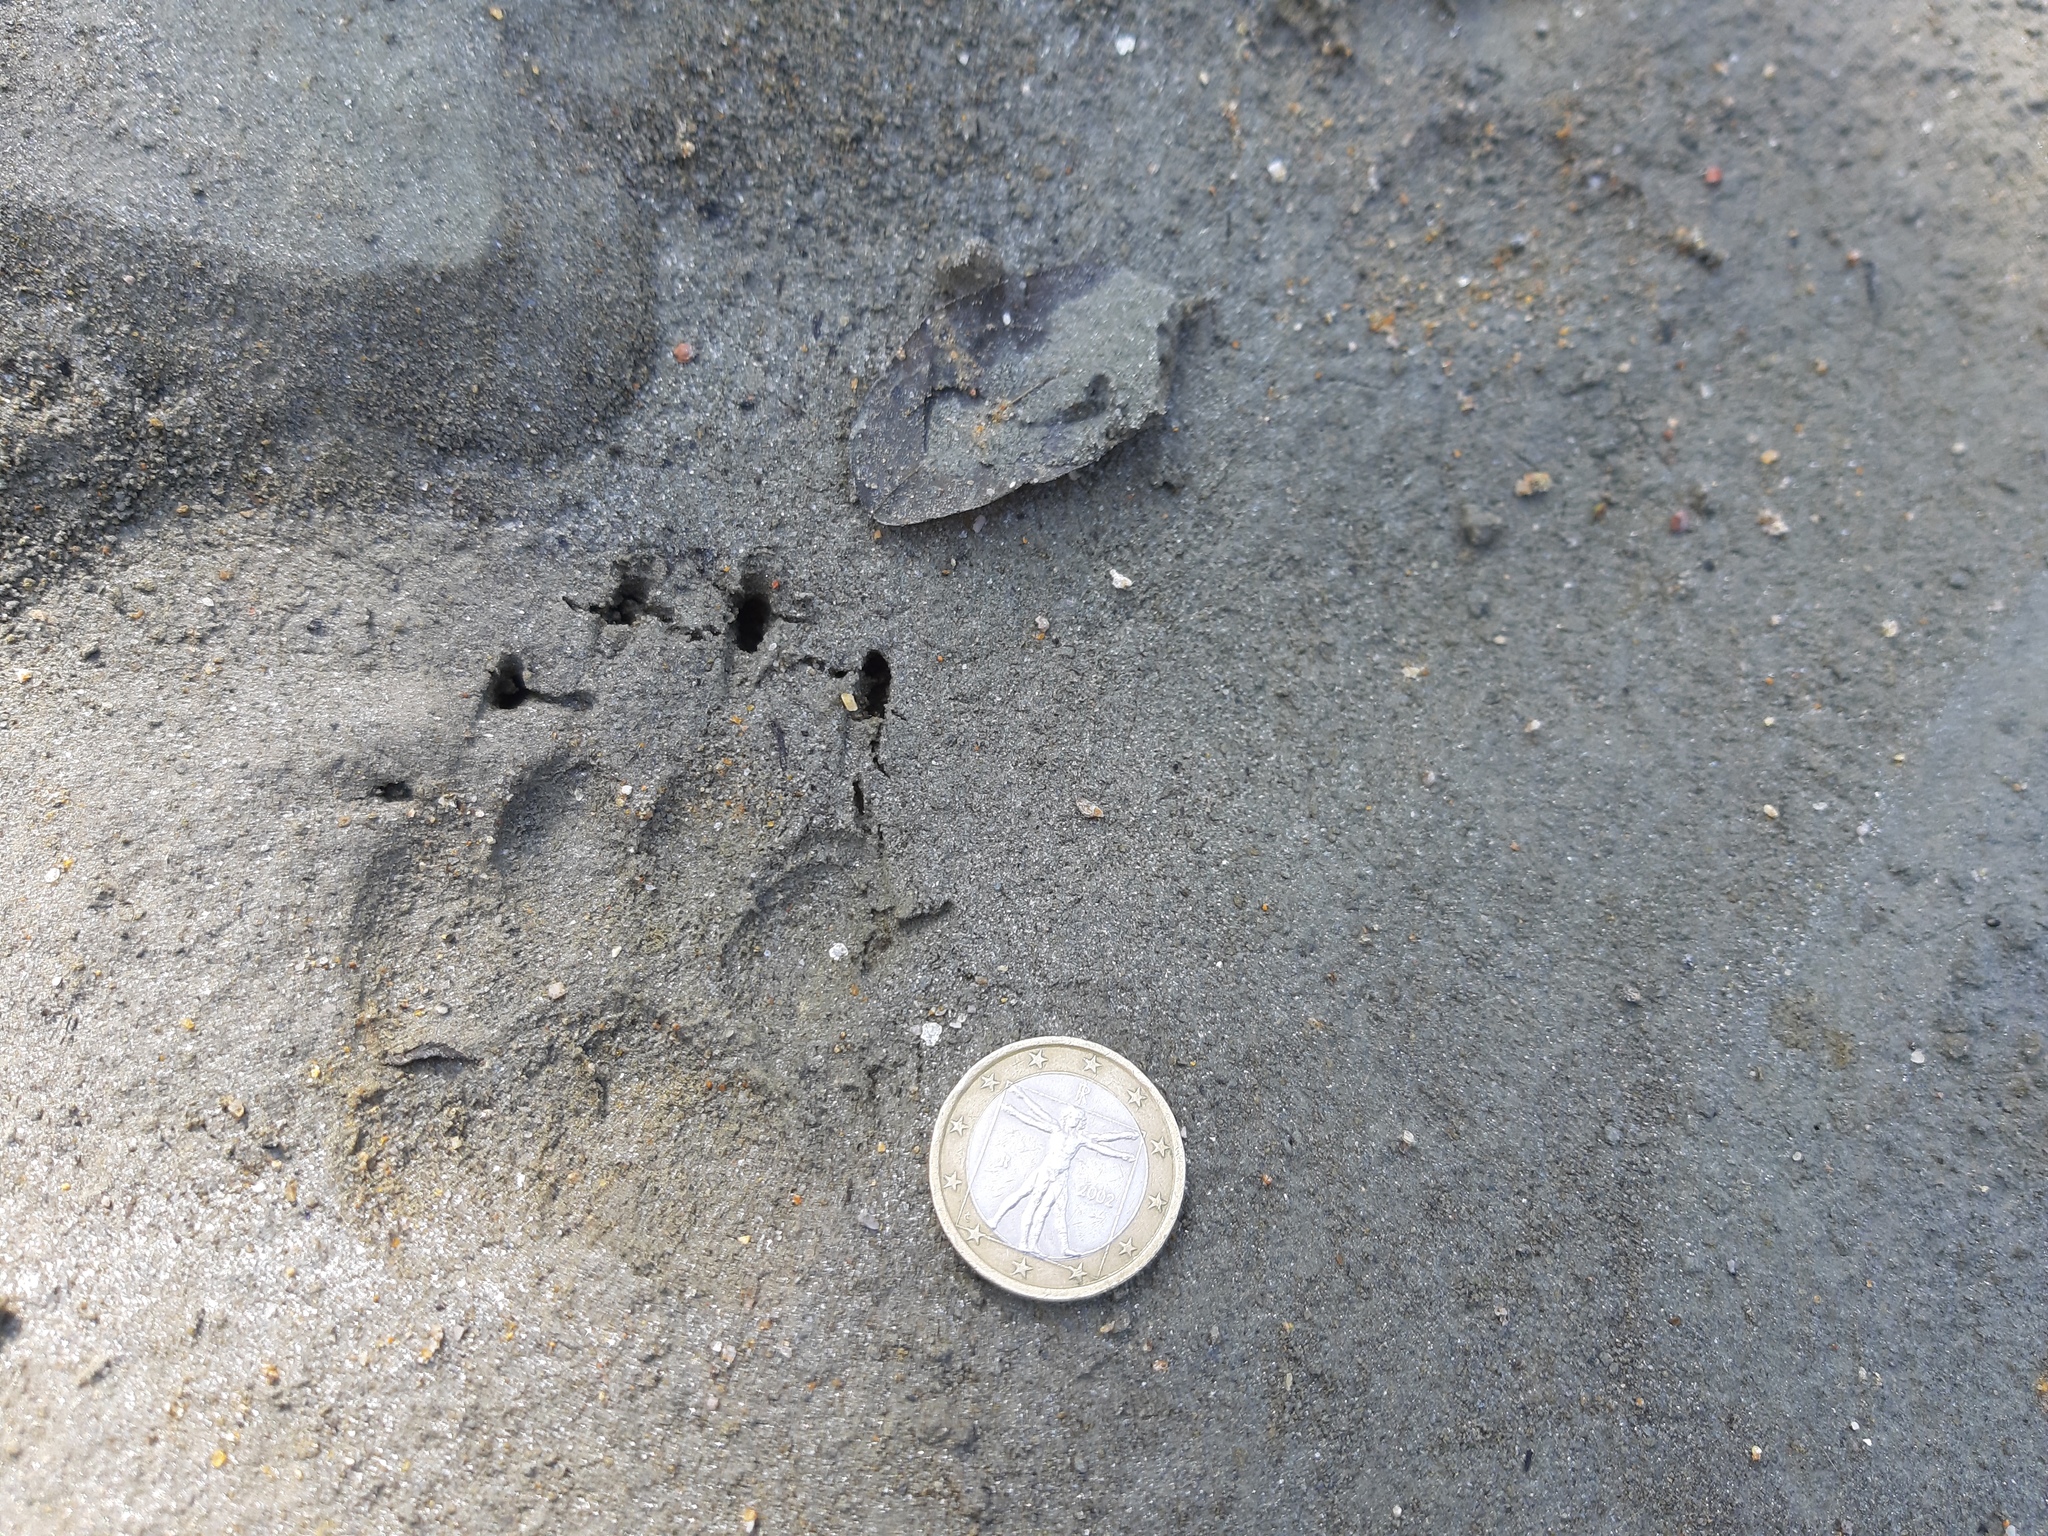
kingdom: Animalia
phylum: Chordata
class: Mammalia
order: Carnivora
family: Mustelidae
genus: Meles
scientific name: Meles meles
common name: Eurasian badger
